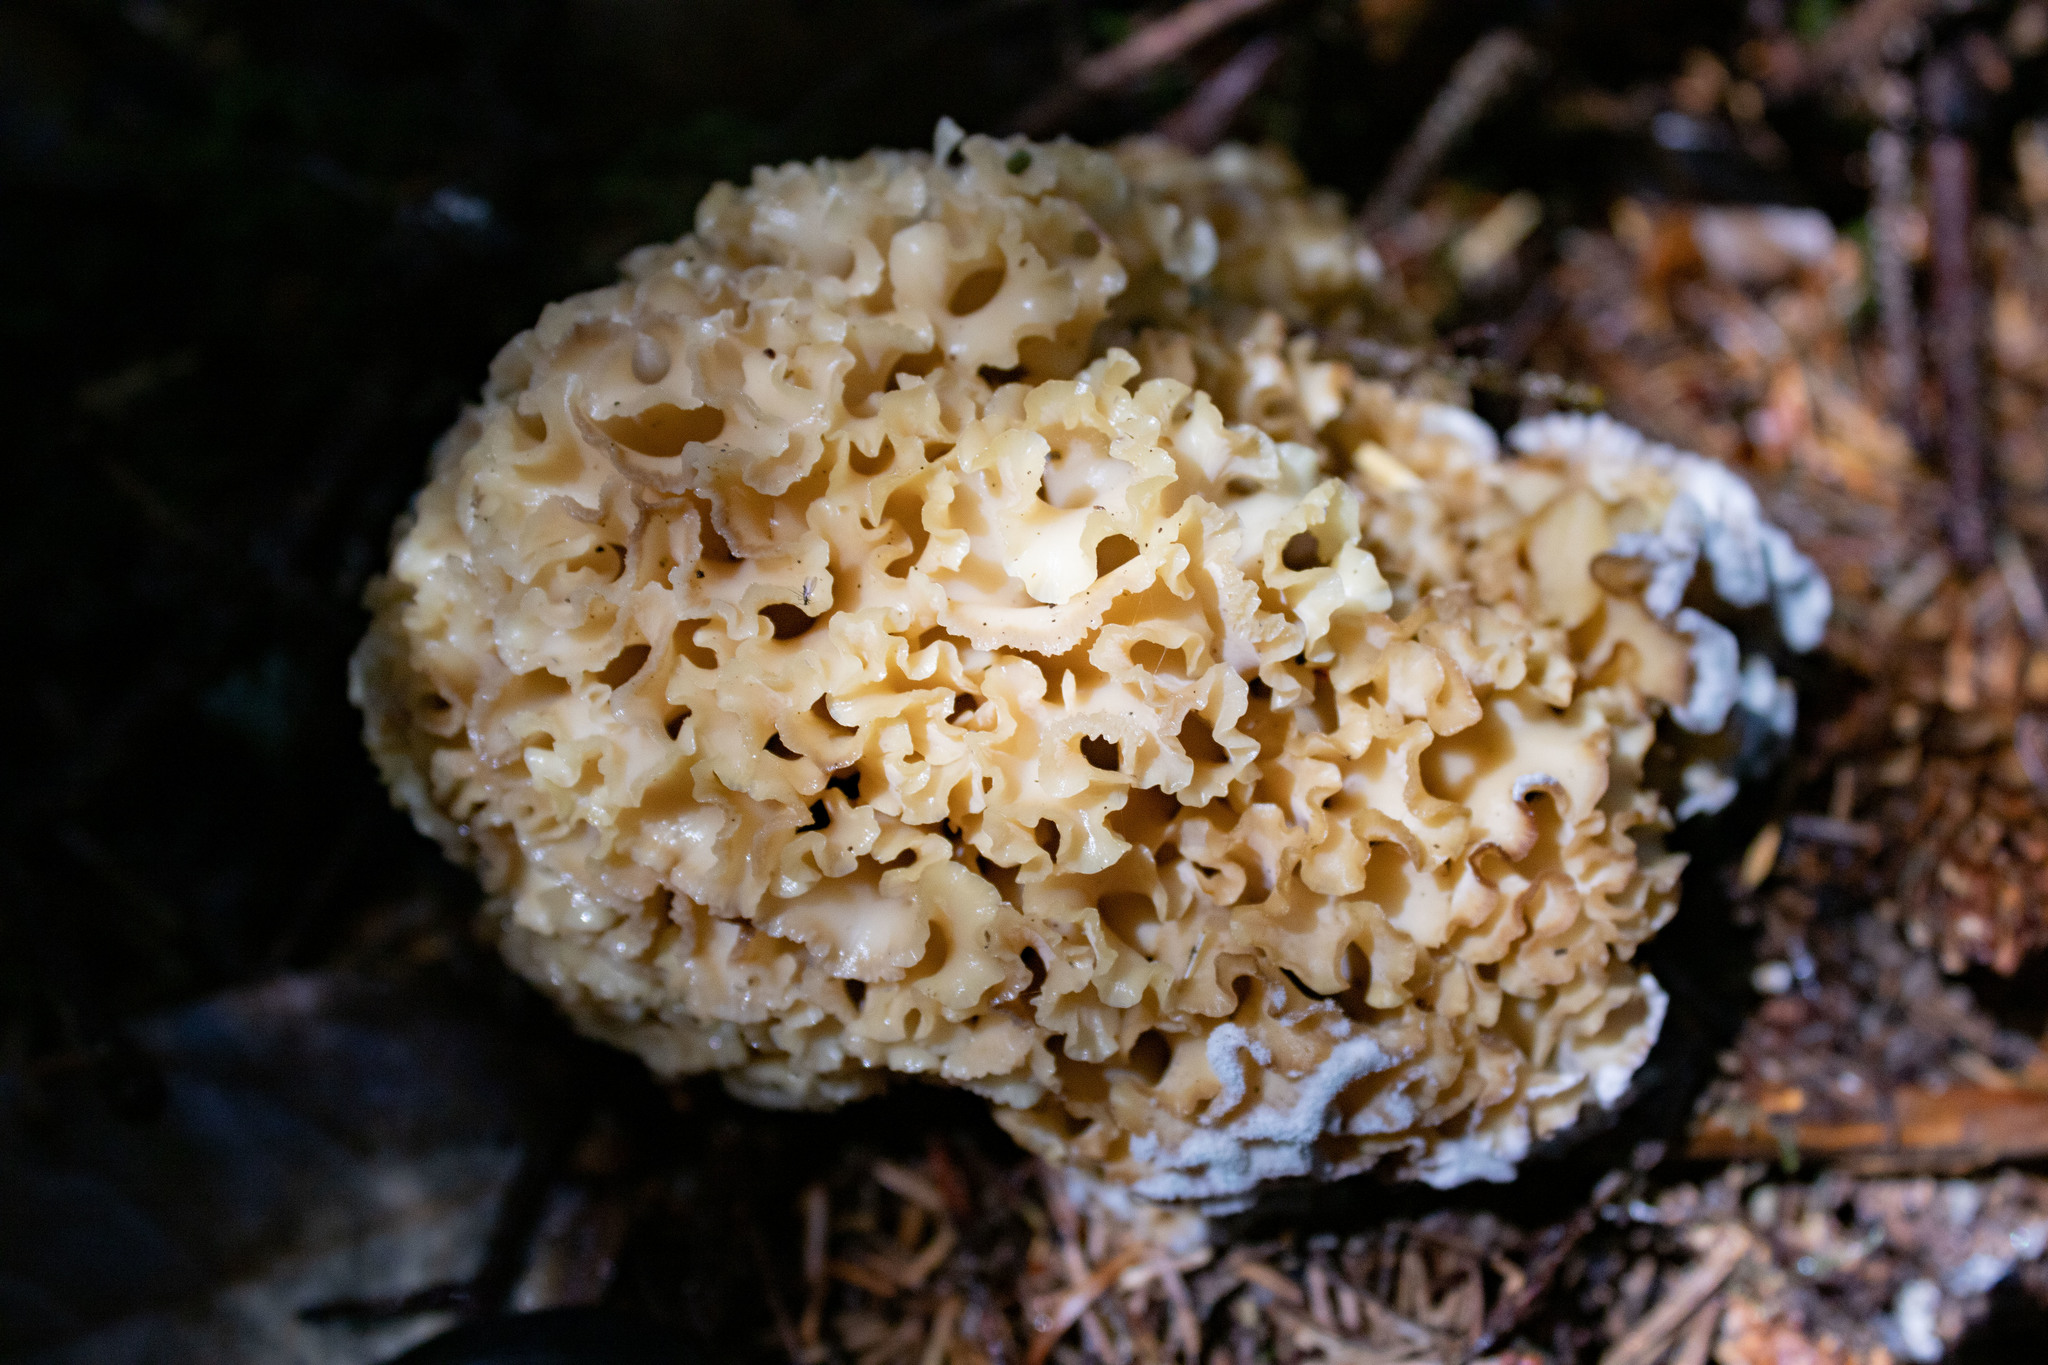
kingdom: Fungi
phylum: Basidiomycota
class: Agaricomycetes
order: Polyporales
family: Sparassidaceae
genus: Sparassis
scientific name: Sparassis radicata
